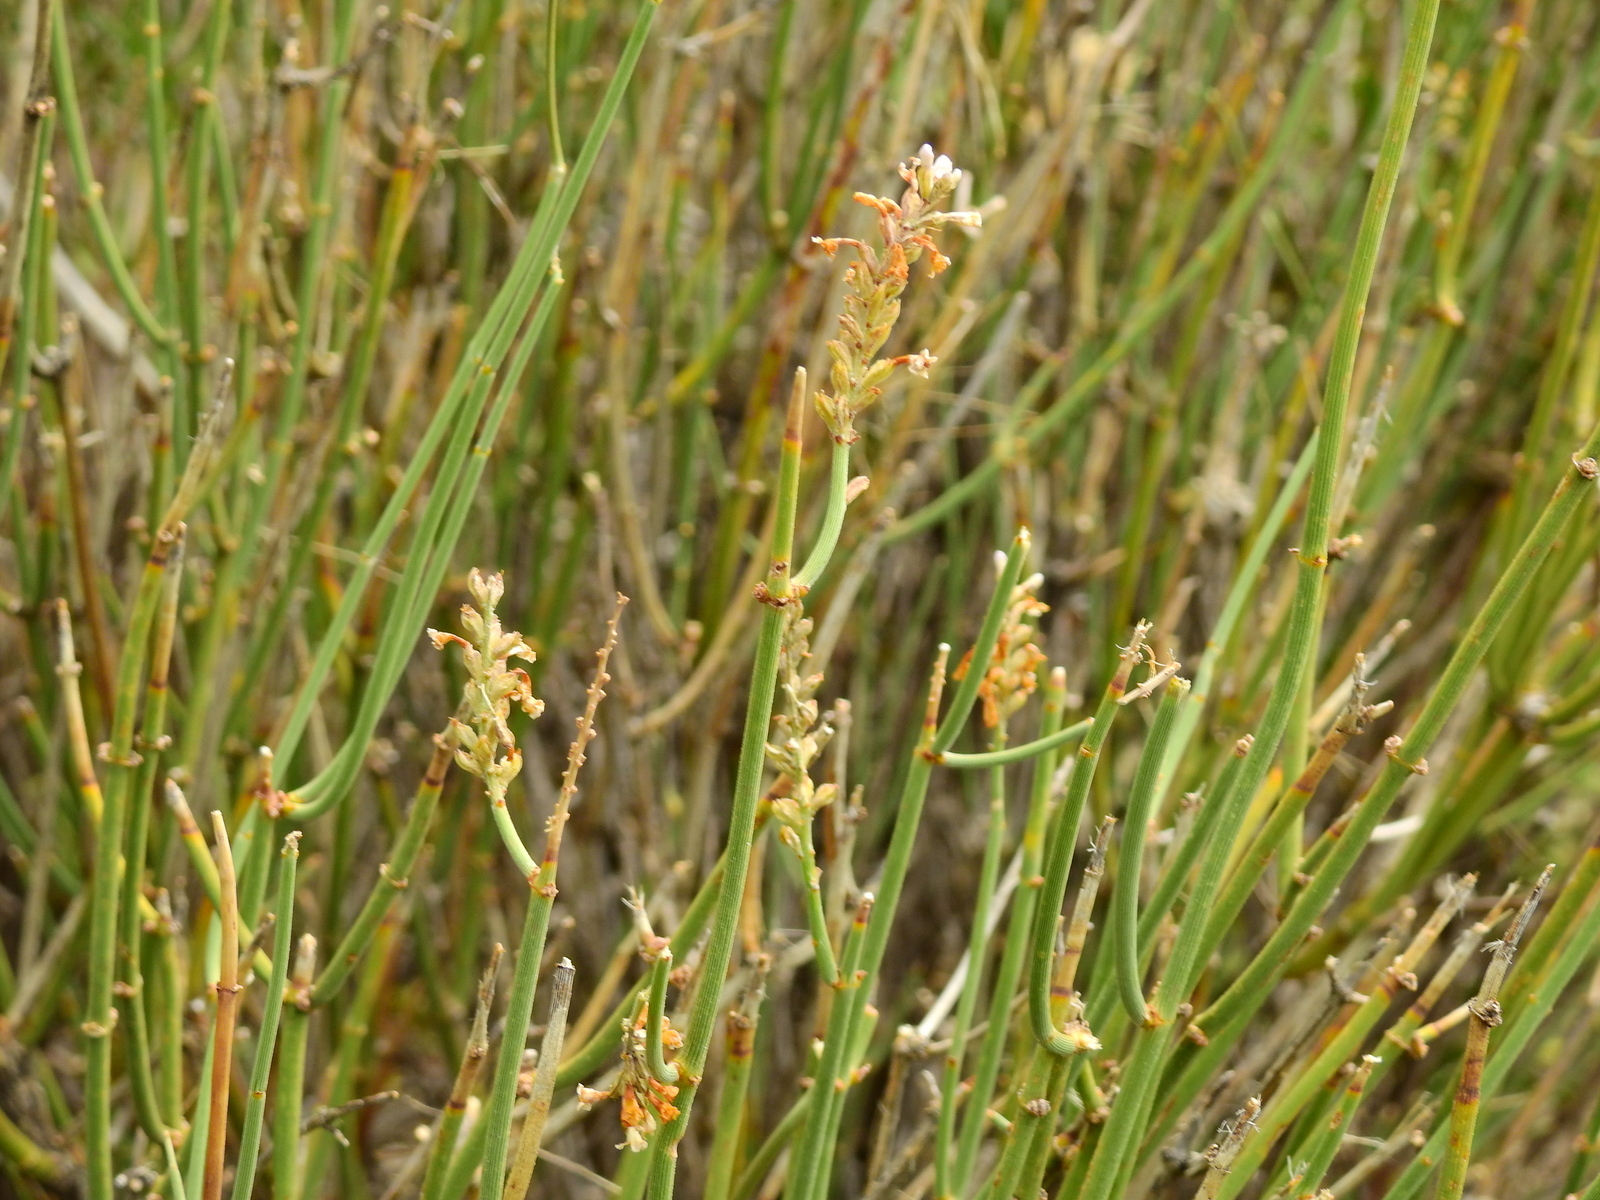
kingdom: Plantae
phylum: Tracheophyta
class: Magnoliopsida
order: Lamiales
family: Verbenaceae
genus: Neosparton
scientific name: Neosparton aphyllum
